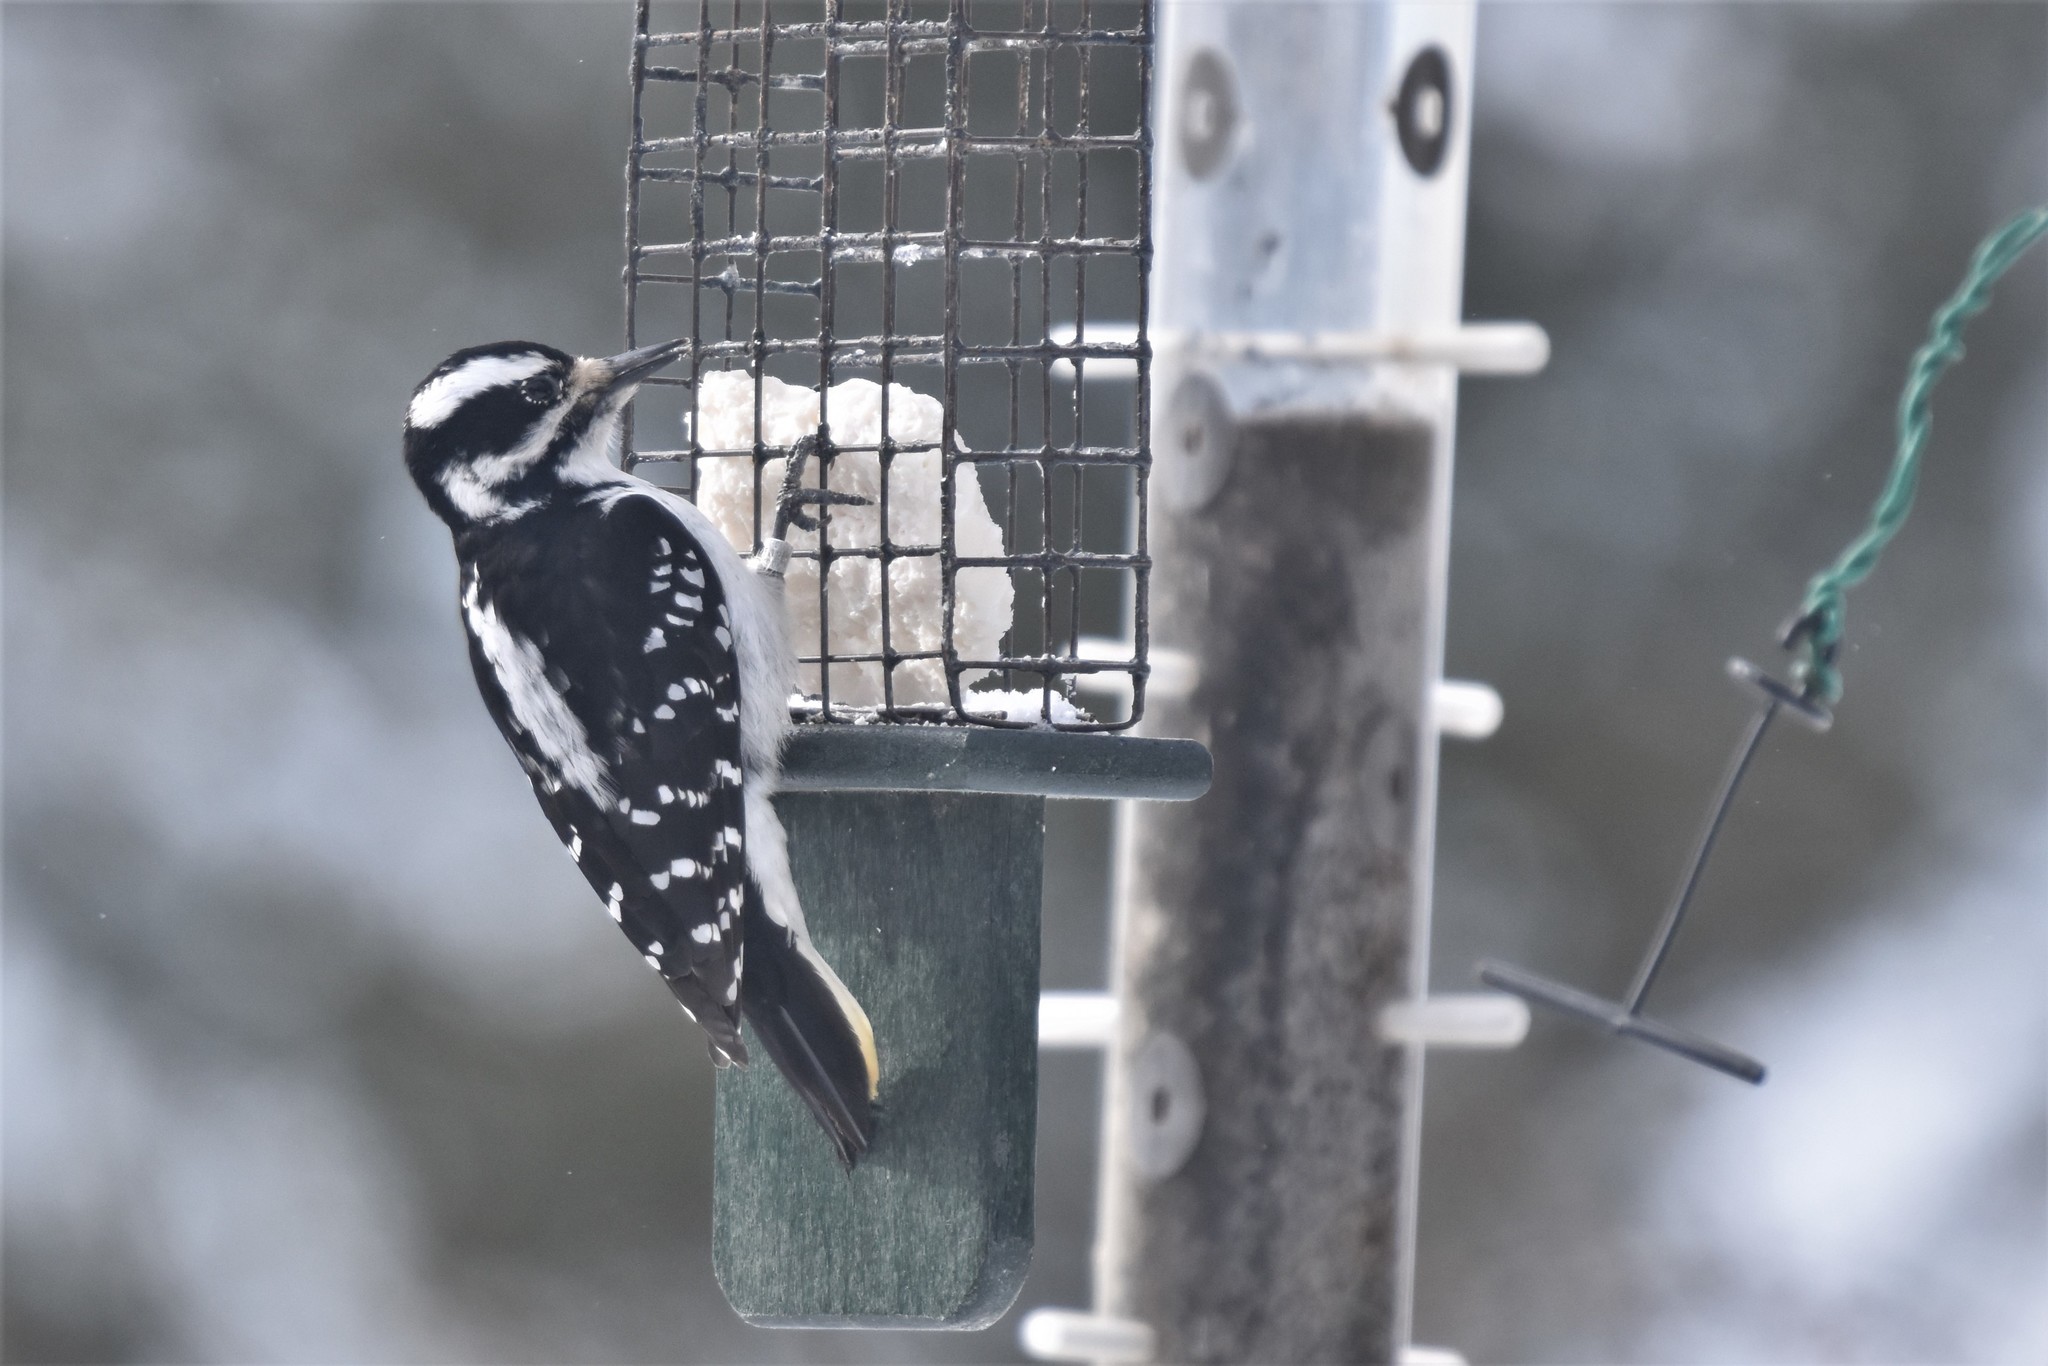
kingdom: Animalia
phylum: Chordata
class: Aves
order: Piciformes
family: Picidae
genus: Leuconotopicus
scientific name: Leuconotopicus villosus
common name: Hairy woodpecker
